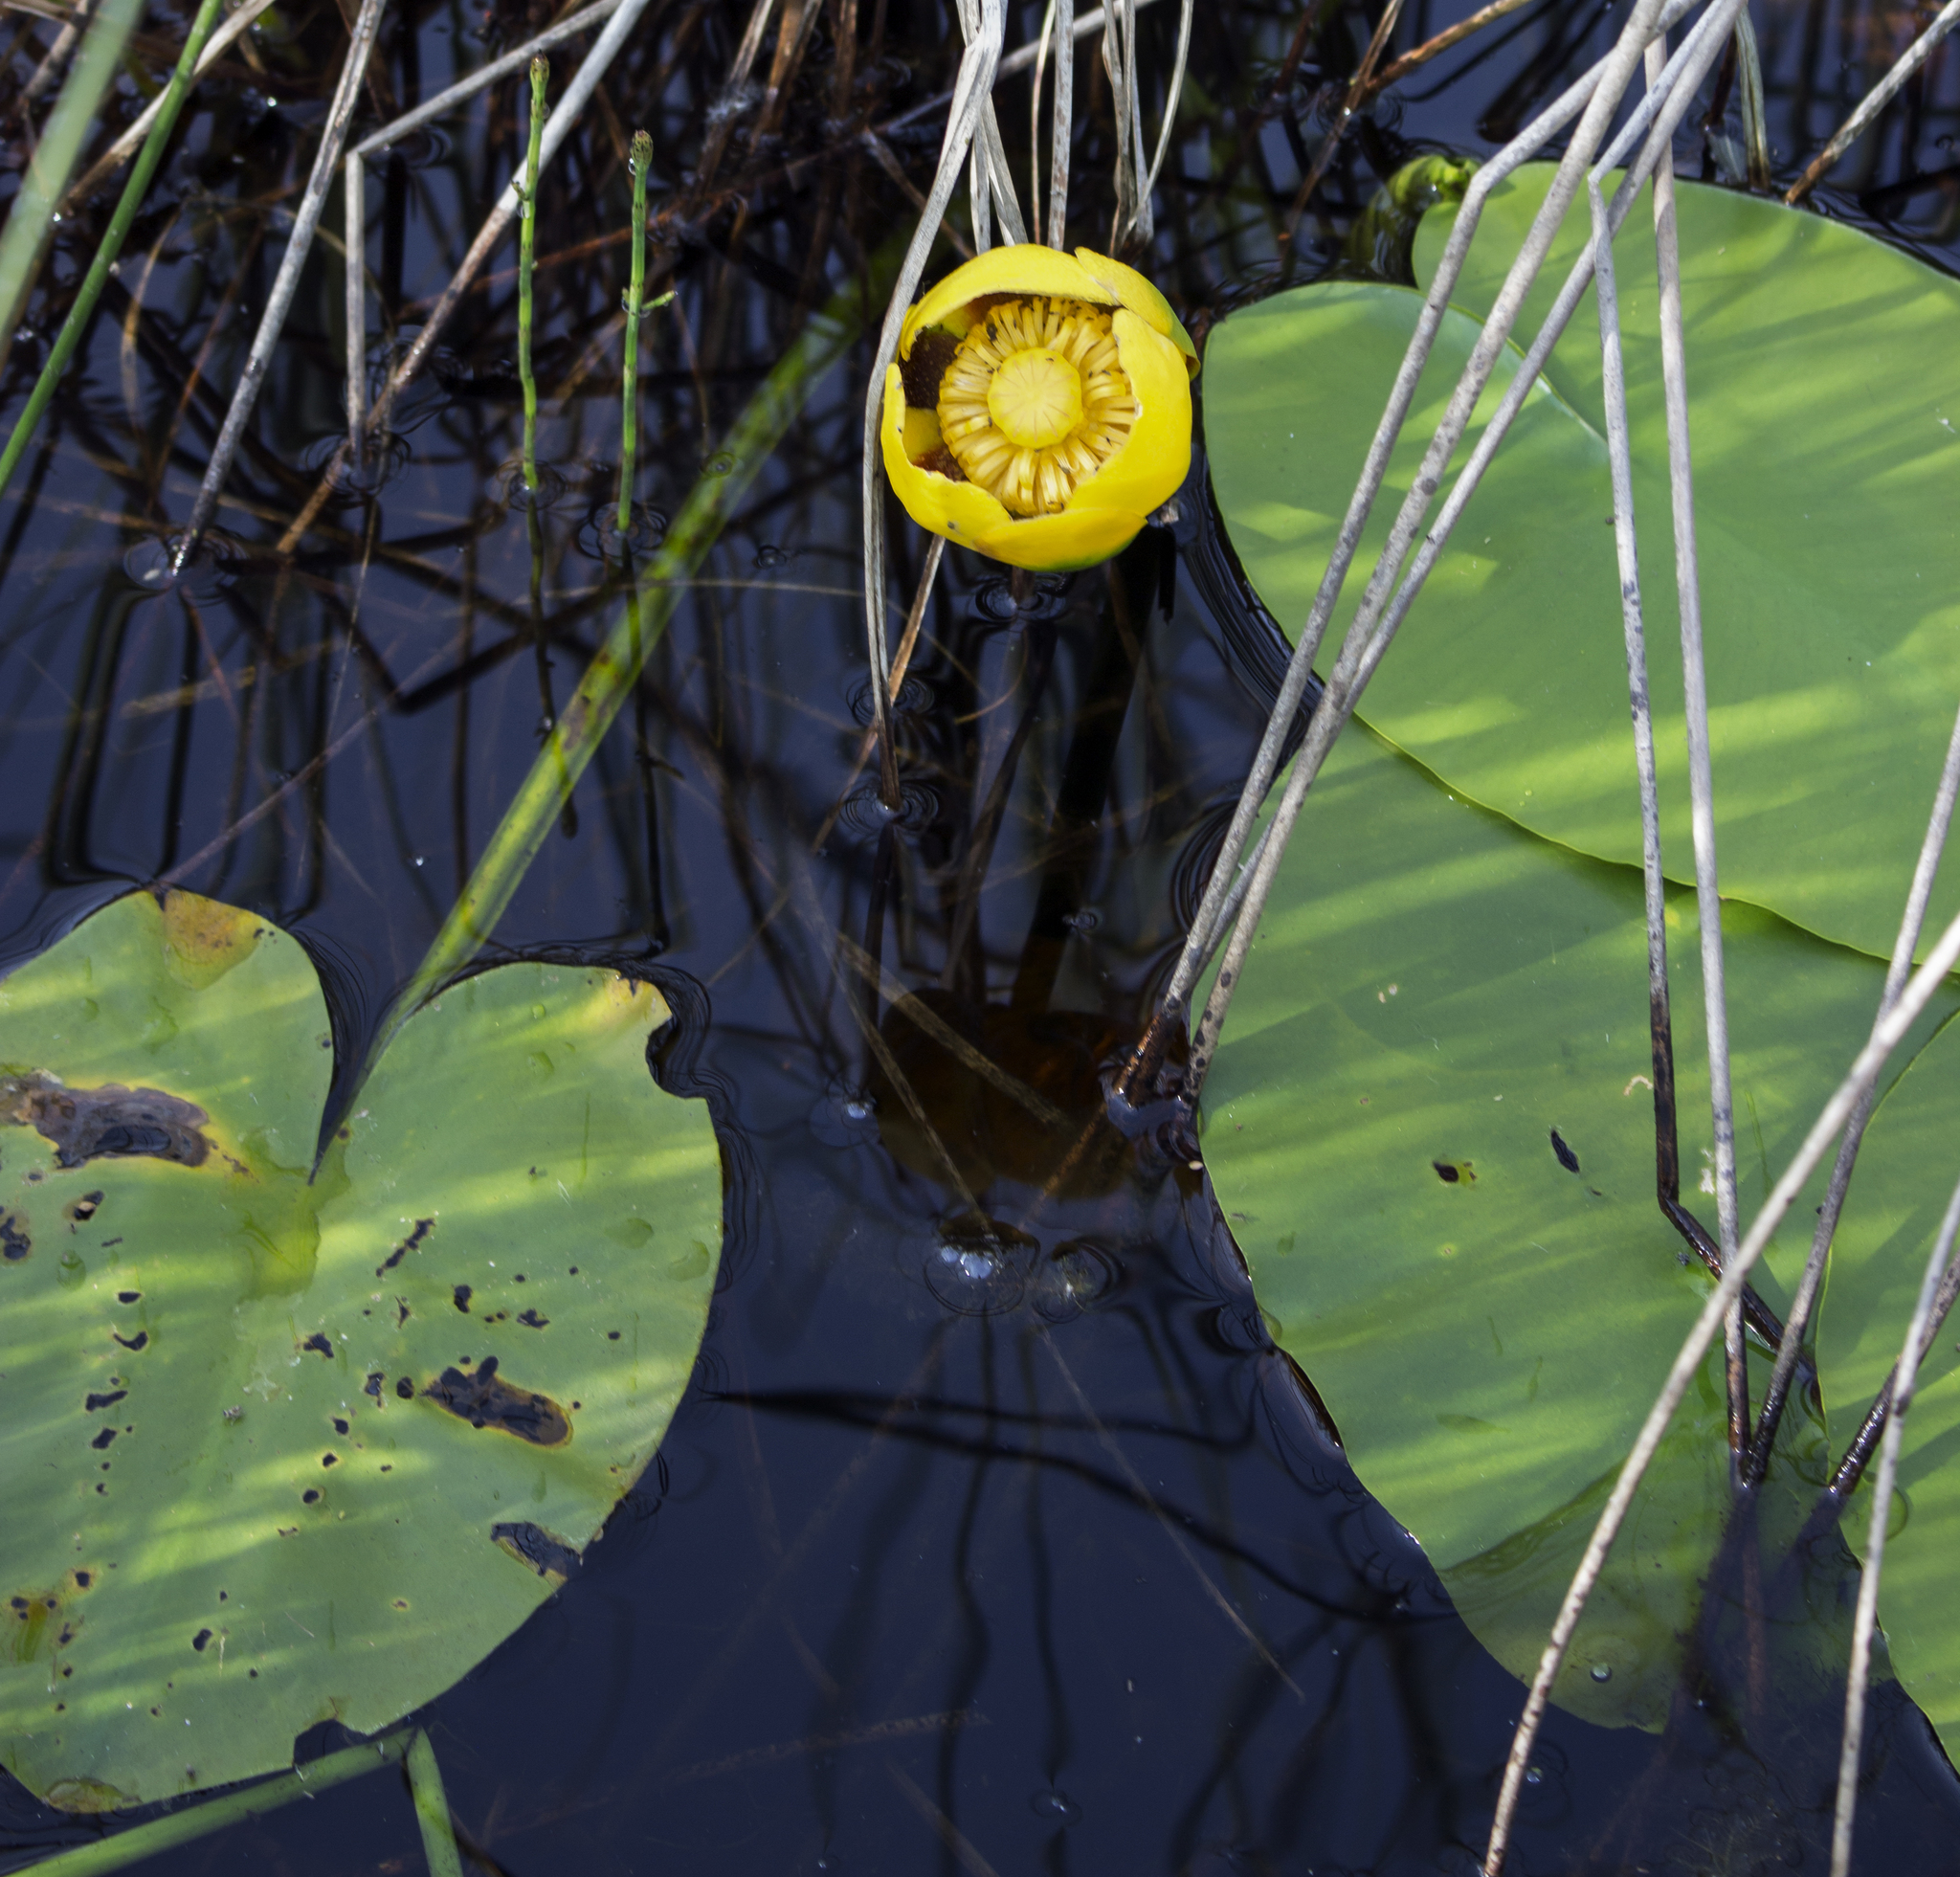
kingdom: Plantae
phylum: Tracheophyta
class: Magnoliopsida
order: Nymphaeales
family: Nymphaeaceae
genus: Nuphar
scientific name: Nuphar variegata
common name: Beaver-root
